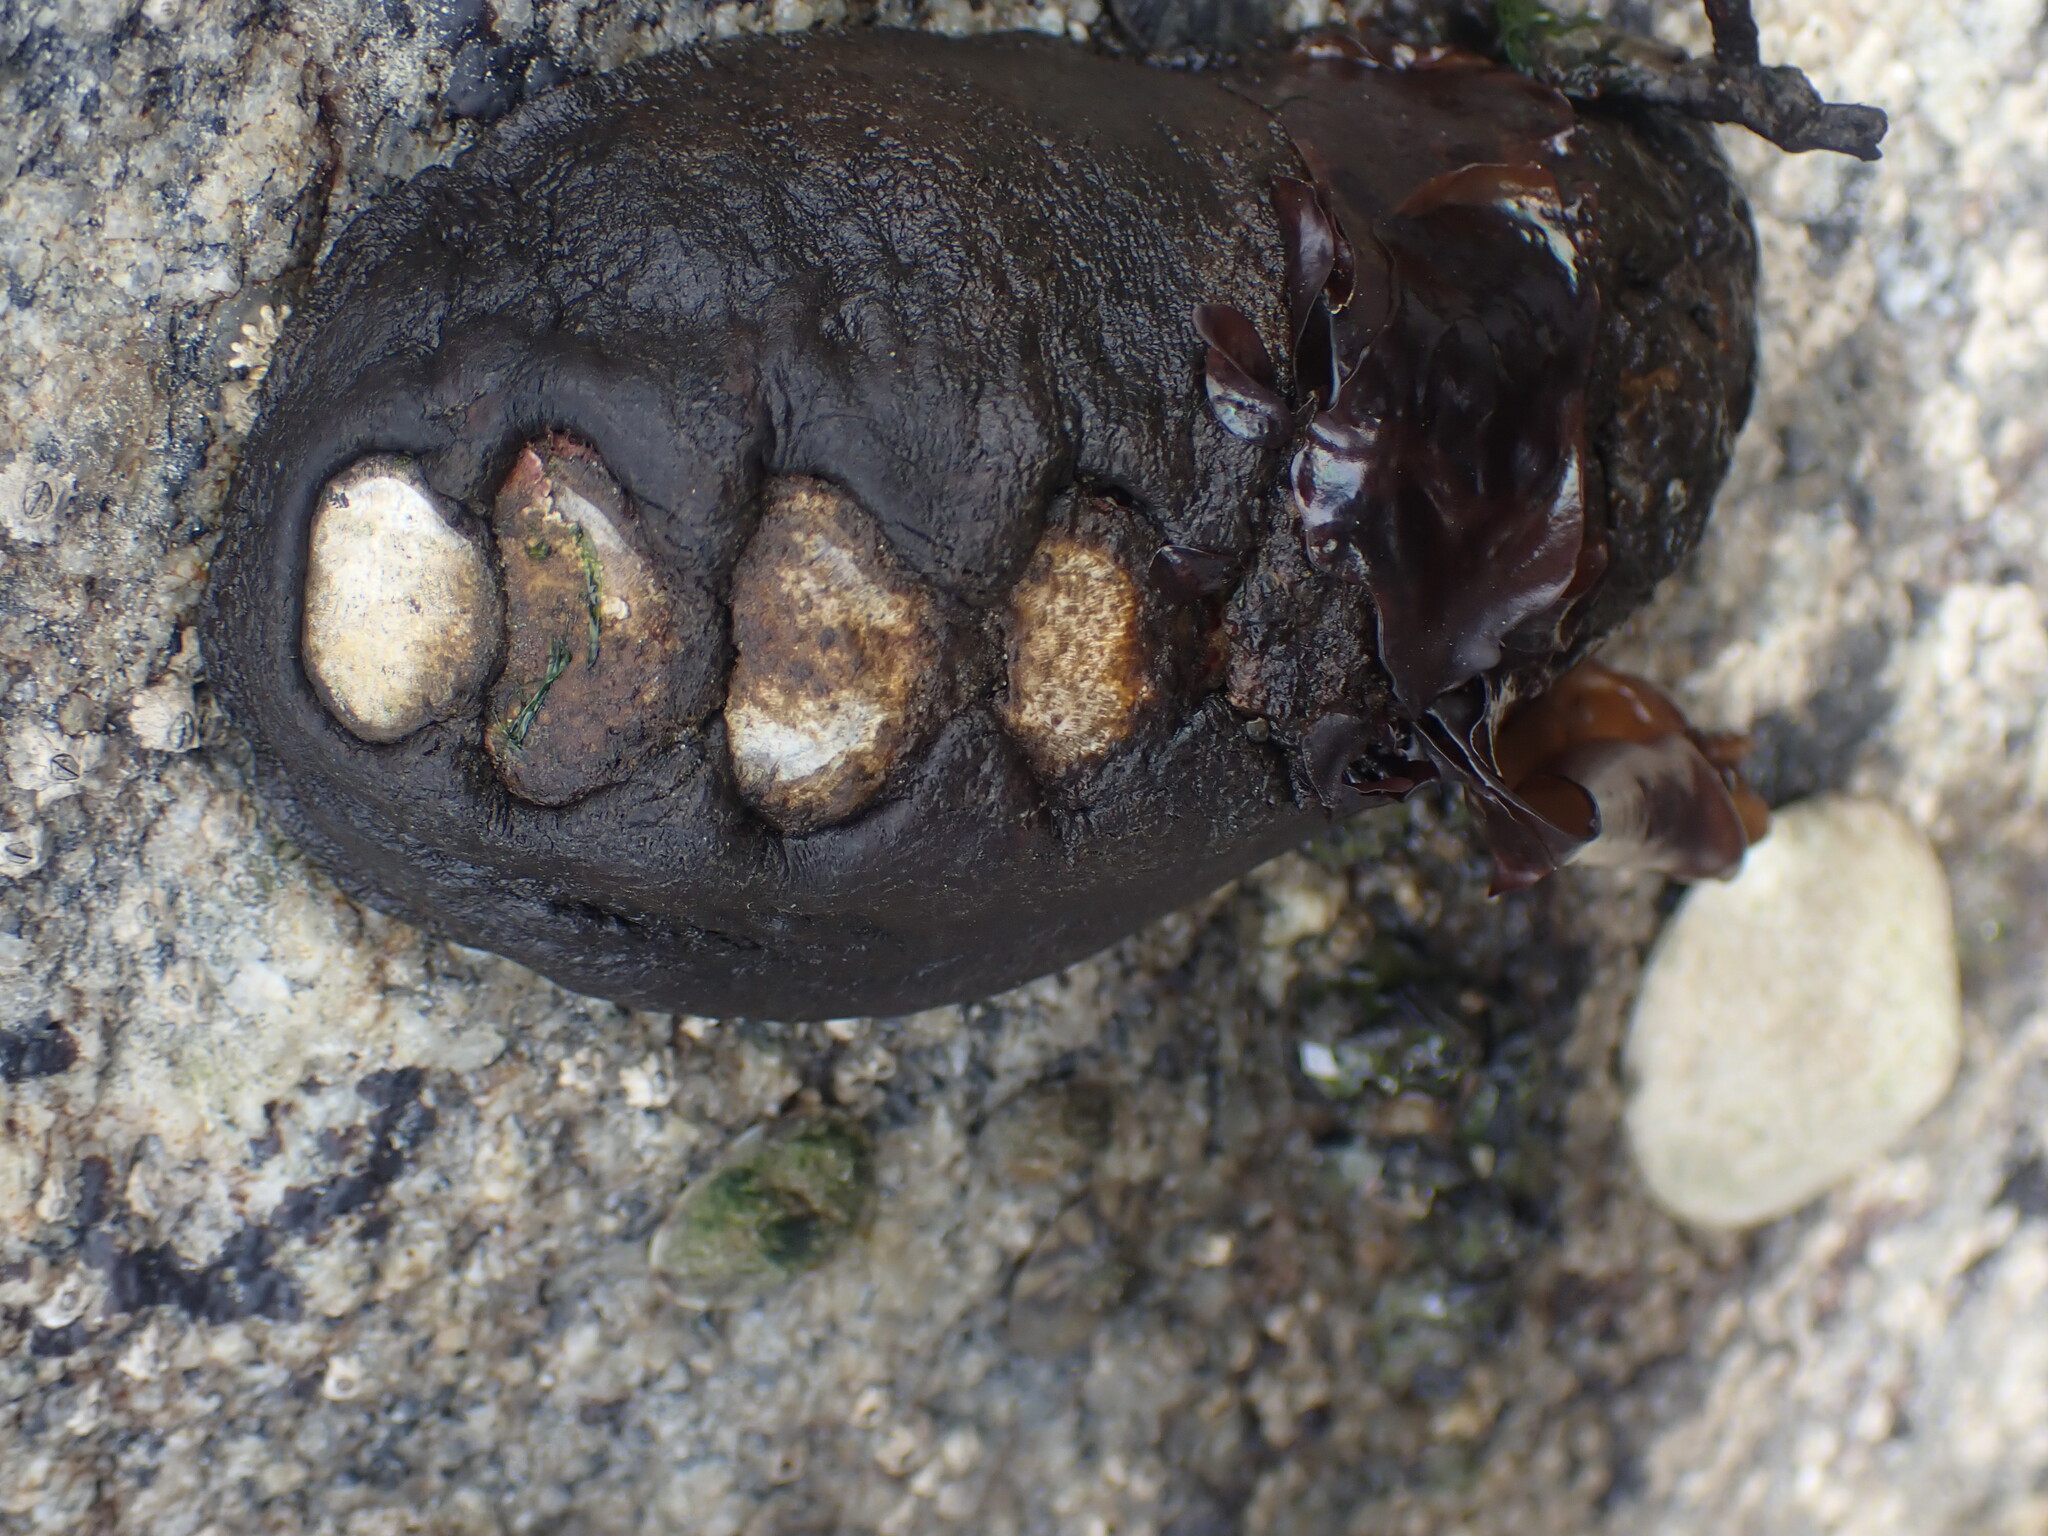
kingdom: Animalia
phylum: Mollusca
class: Polyplacophora
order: Chitonida
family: Mopaliidae
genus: Katharina
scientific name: Katharina tunicata
